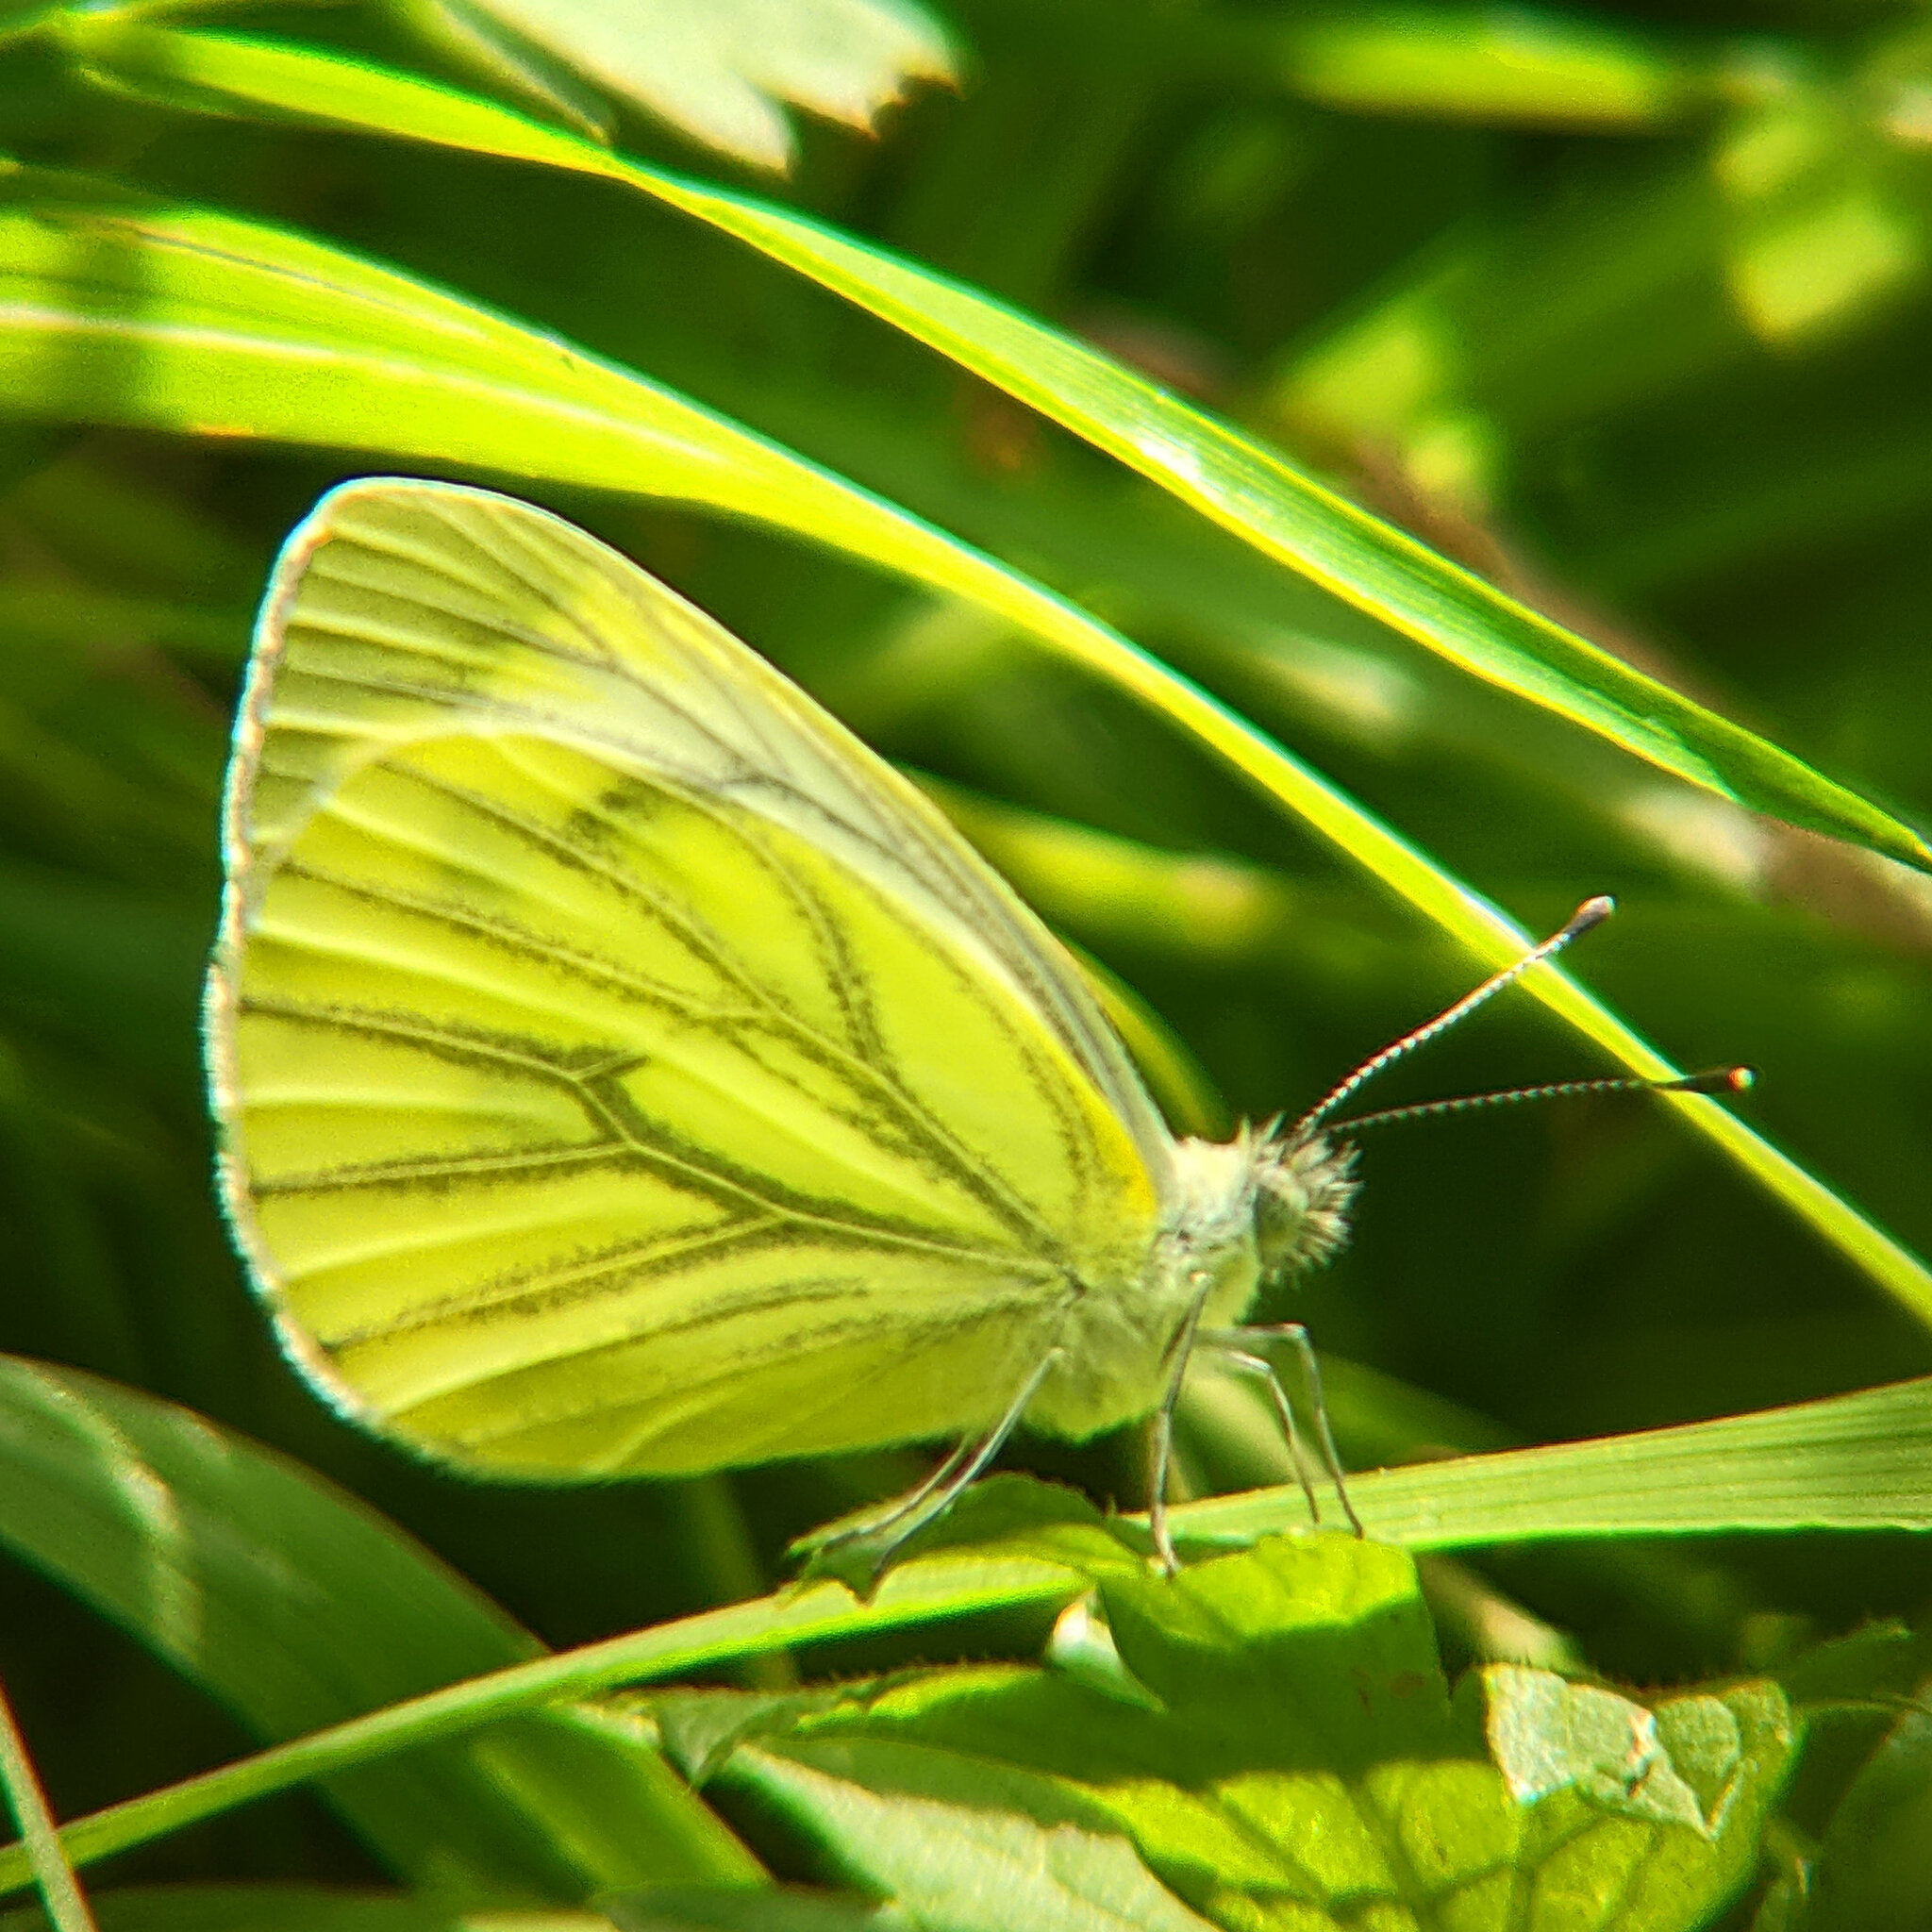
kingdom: Animalia
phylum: Arthropoda
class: Insecta
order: Lepidoptera
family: Pieridae
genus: Pieris
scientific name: Pieris napi
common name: Green-veined white
